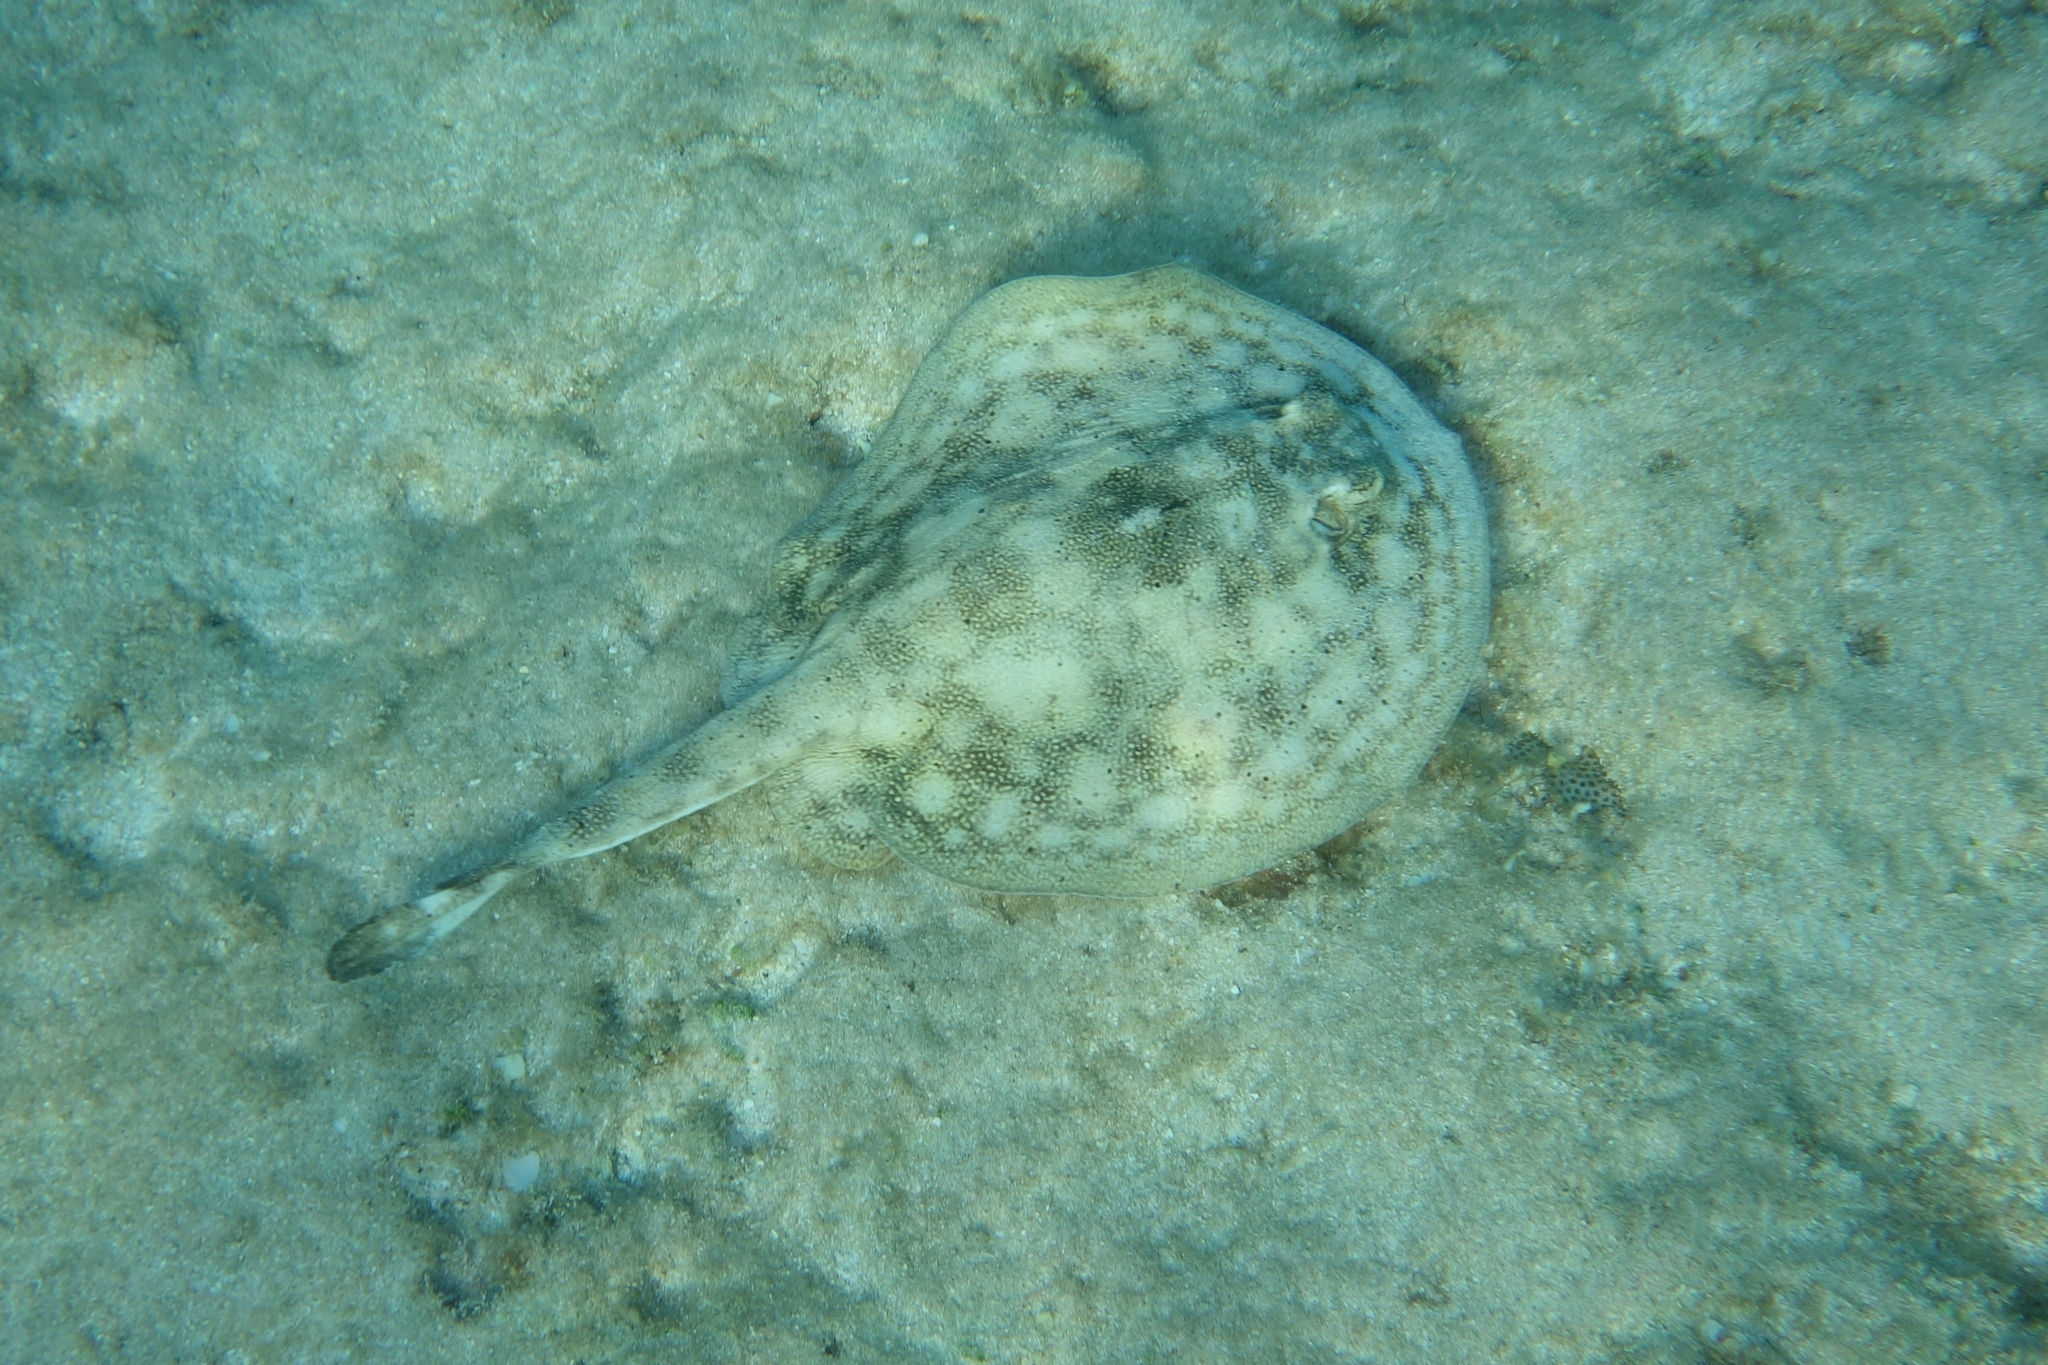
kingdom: Animalia
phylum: Chordata
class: Elasmobranchii
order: Myliobatiformes
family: Urotrygonidae
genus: Urobatis
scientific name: Urobatis jamaicensis
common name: Yellow stingray
